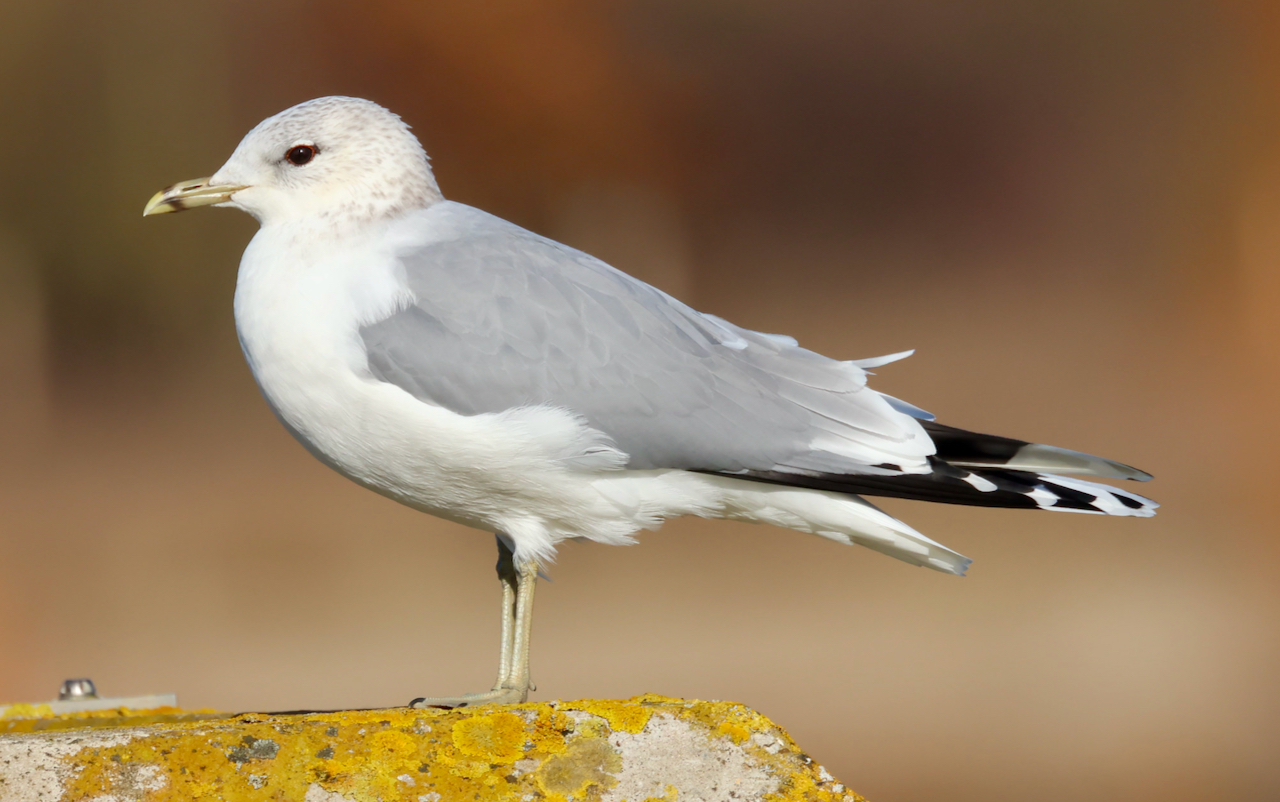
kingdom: Animalia
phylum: Chordata
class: Aves
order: Charadriiformes
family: Laridae
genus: Larus
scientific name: Larus canus
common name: Mew gull
